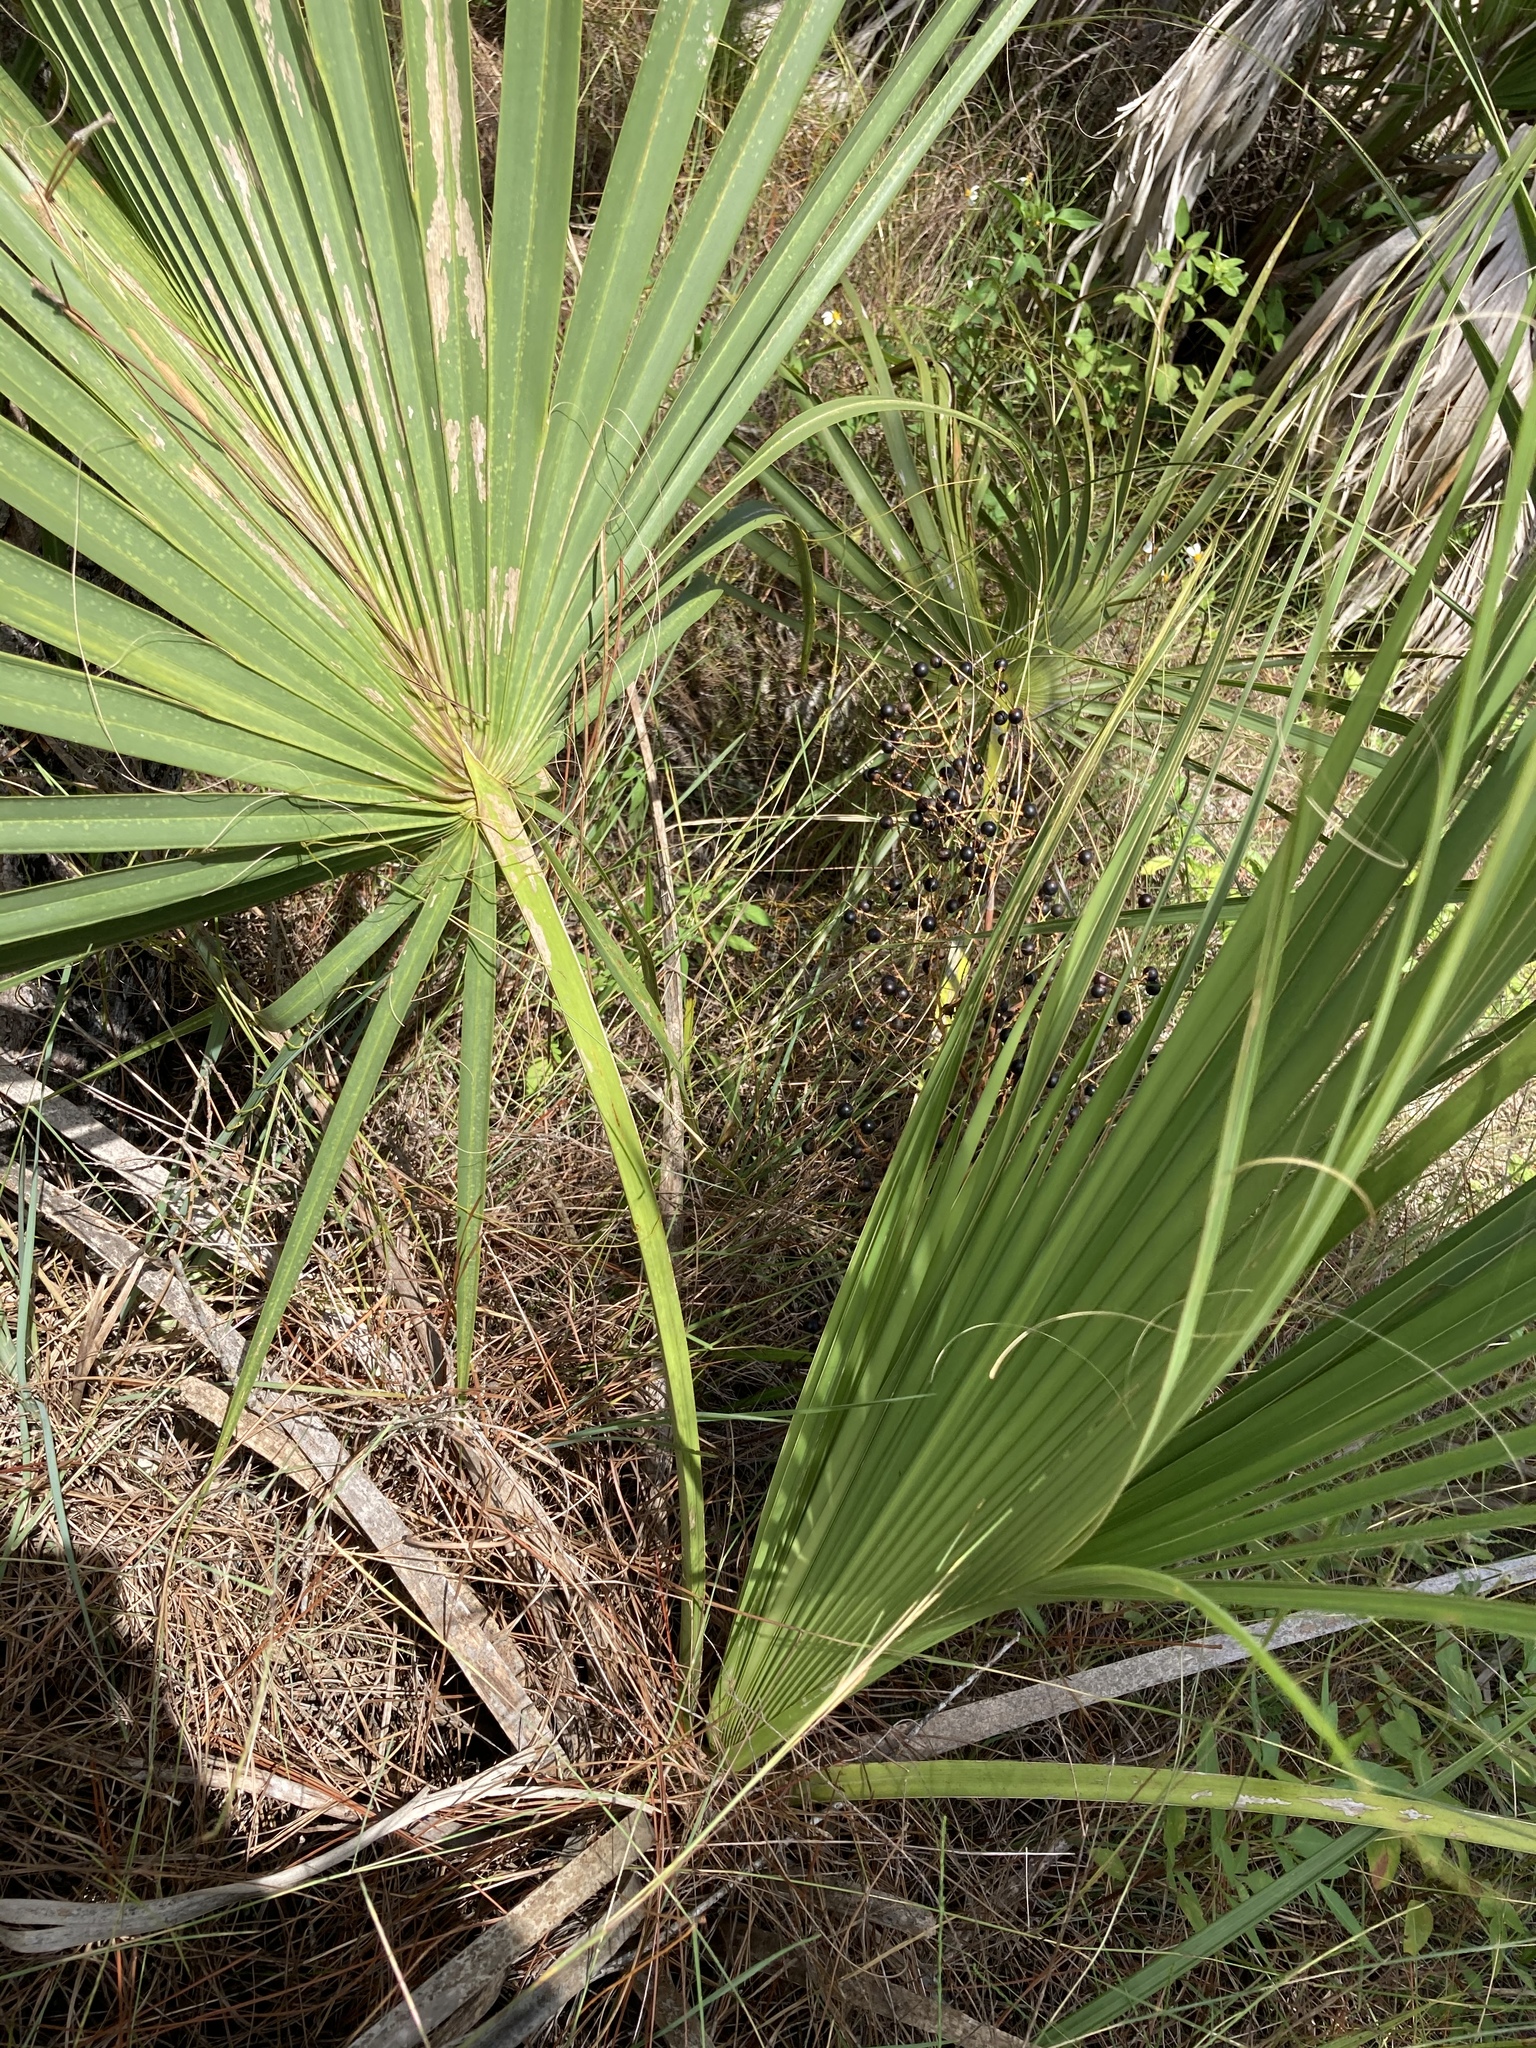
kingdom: Plantae
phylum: Tracheophyta
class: Liliopsida
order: Arecales
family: Arecaceae
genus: Sabal
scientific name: Sabal etonia
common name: Dwarf palmetto
